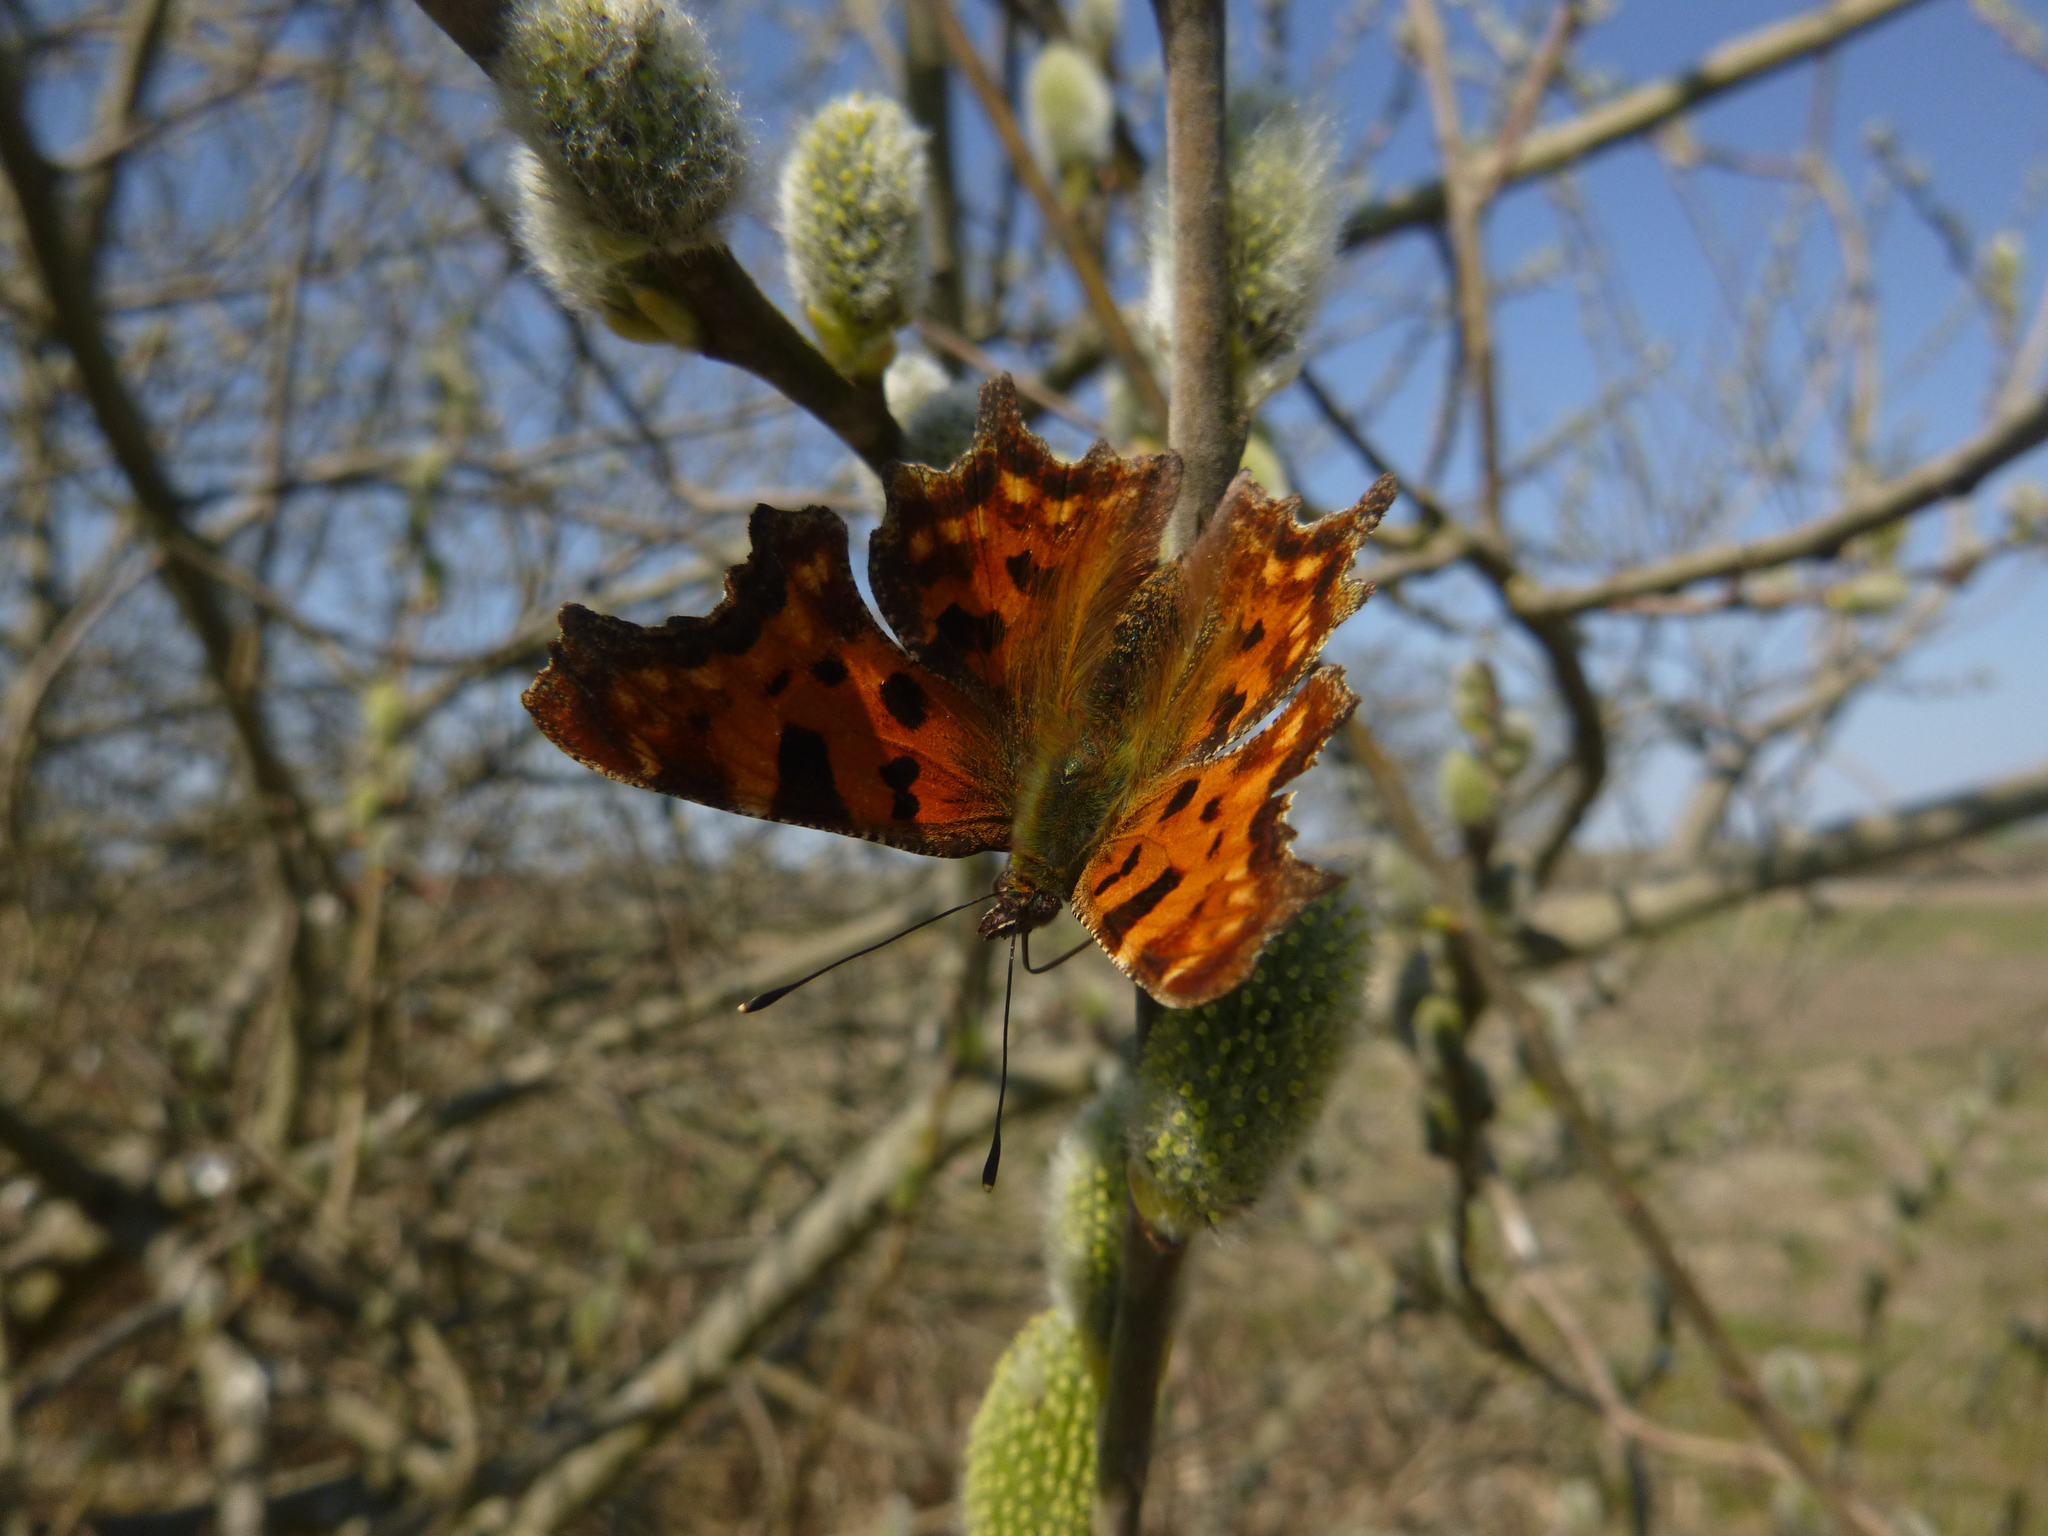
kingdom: Animalia
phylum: Arthropoda
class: Insecta
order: Lepidoptera
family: Nymphalidae
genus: Polygonia
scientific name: Polygonia c-album
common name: Comma
